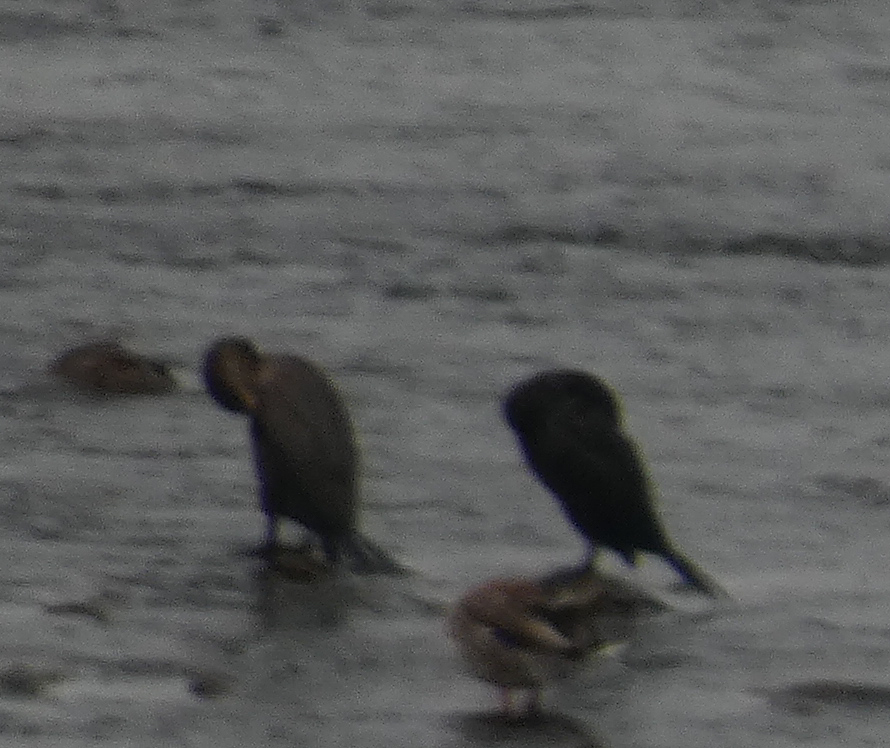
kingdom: Animalia
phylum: Chordata
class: Aves
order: Suliformes
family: Phalacrocoracidae
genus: Phalacrocorax
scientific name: Phalacrocorax auritus
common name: Double-crested cormorant
